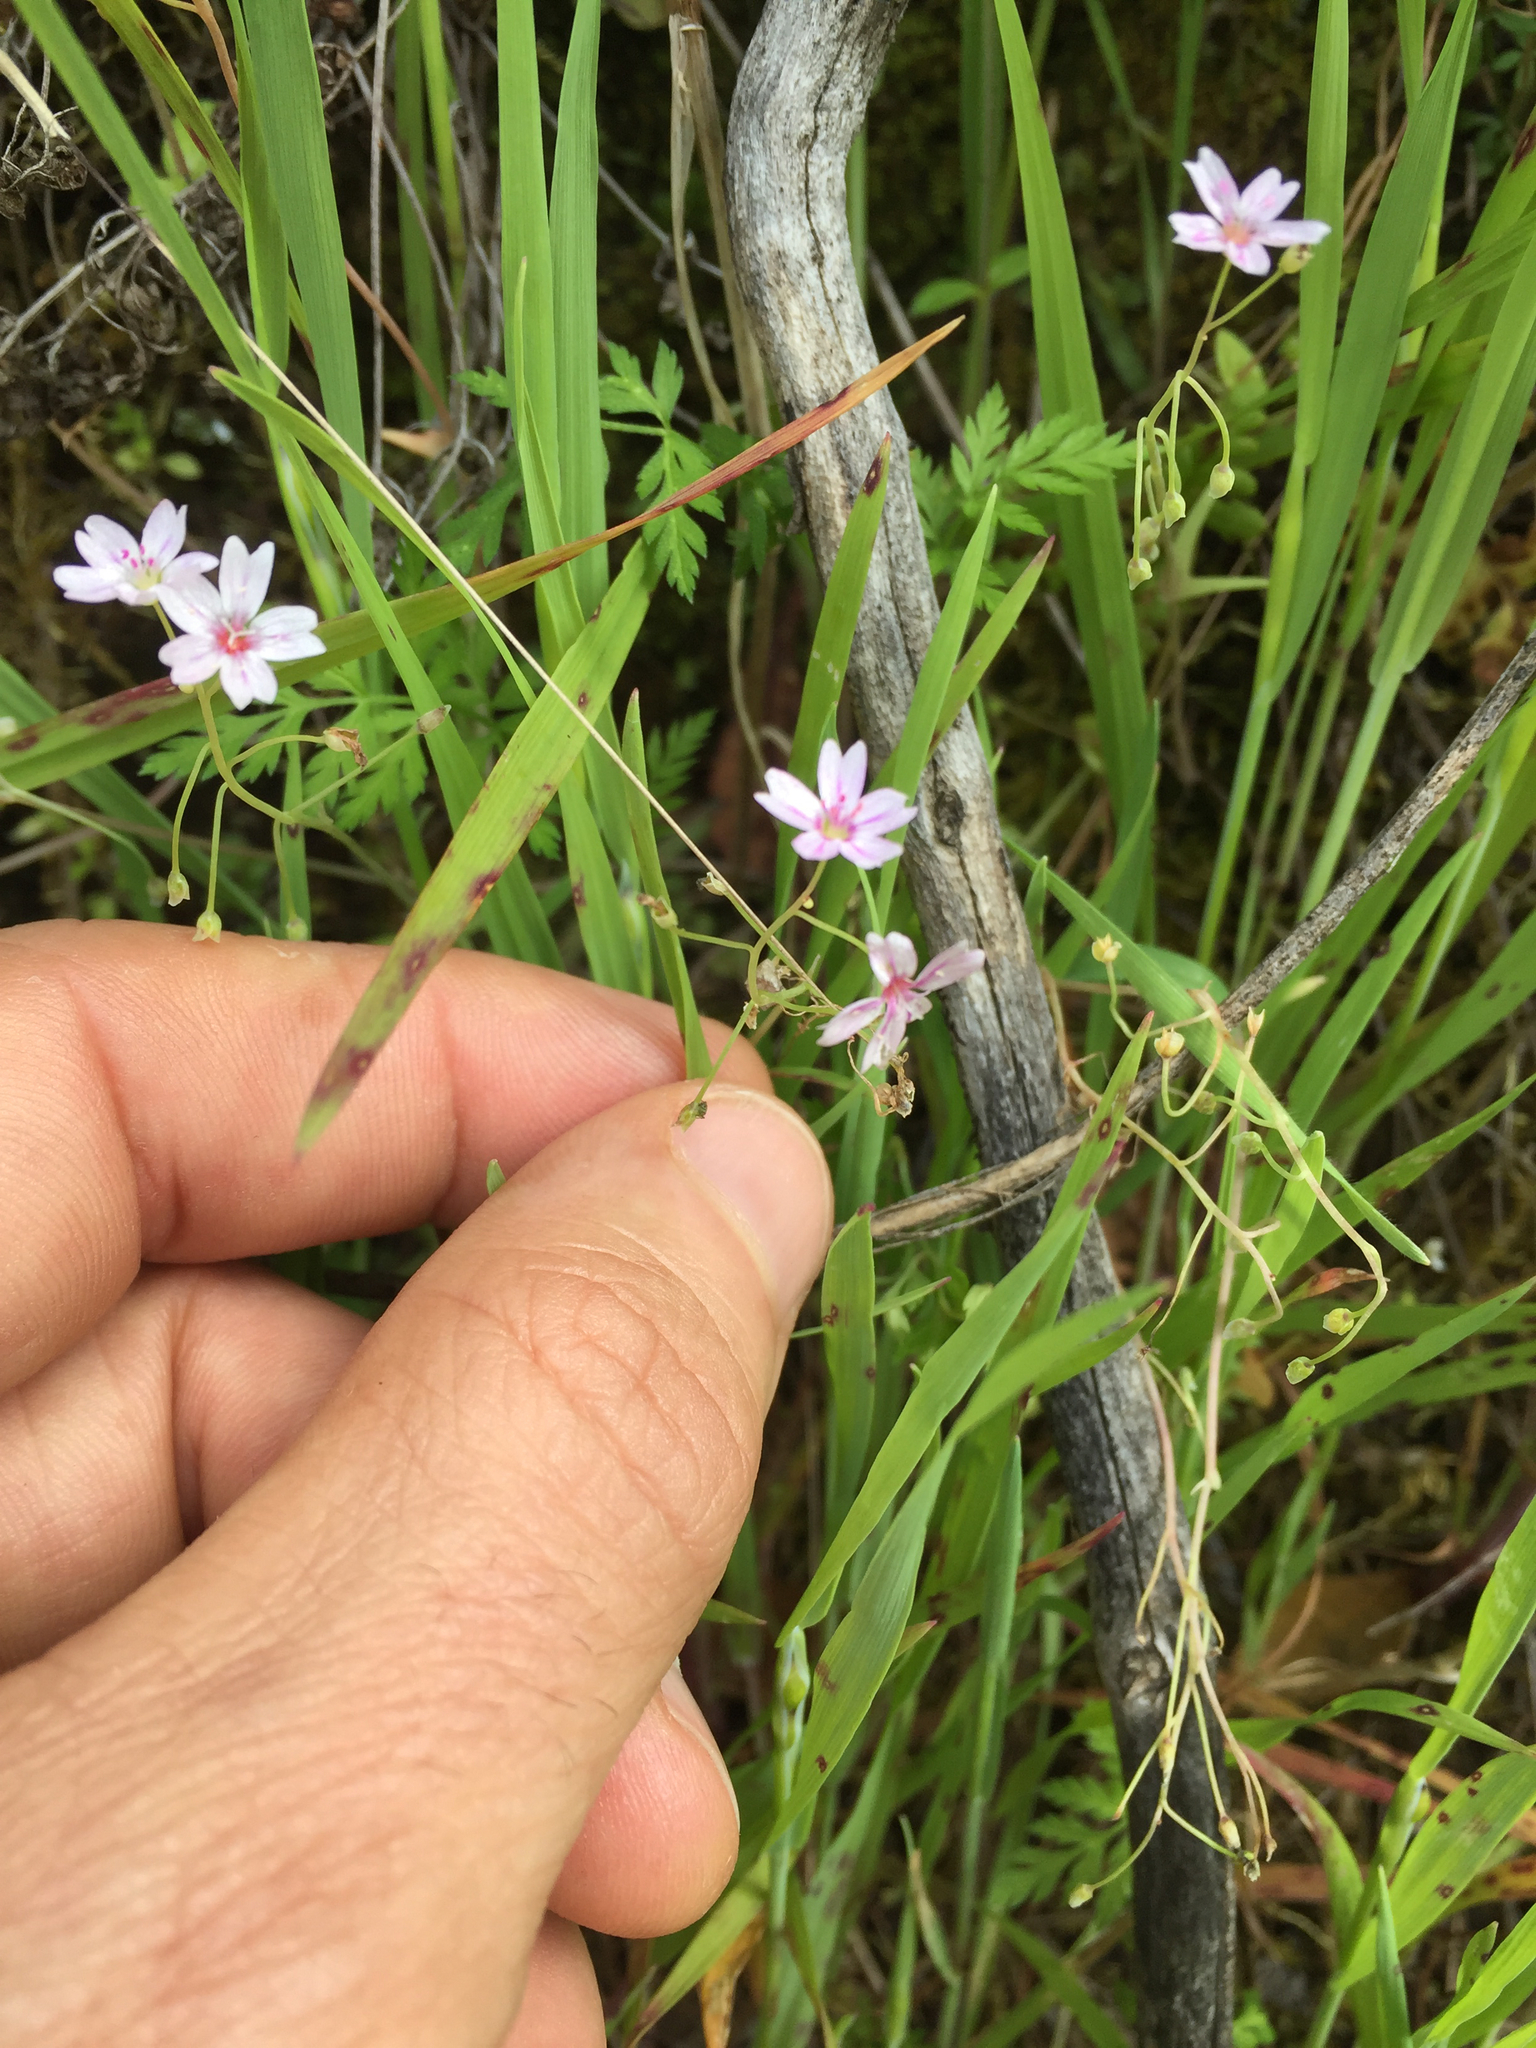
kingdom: Plantae
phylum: Tracheophyta
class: Magnoliopsida
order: Caryophyllales
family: Montiaceae
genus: Claytonia
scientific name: Claytonia gypsophiloides
